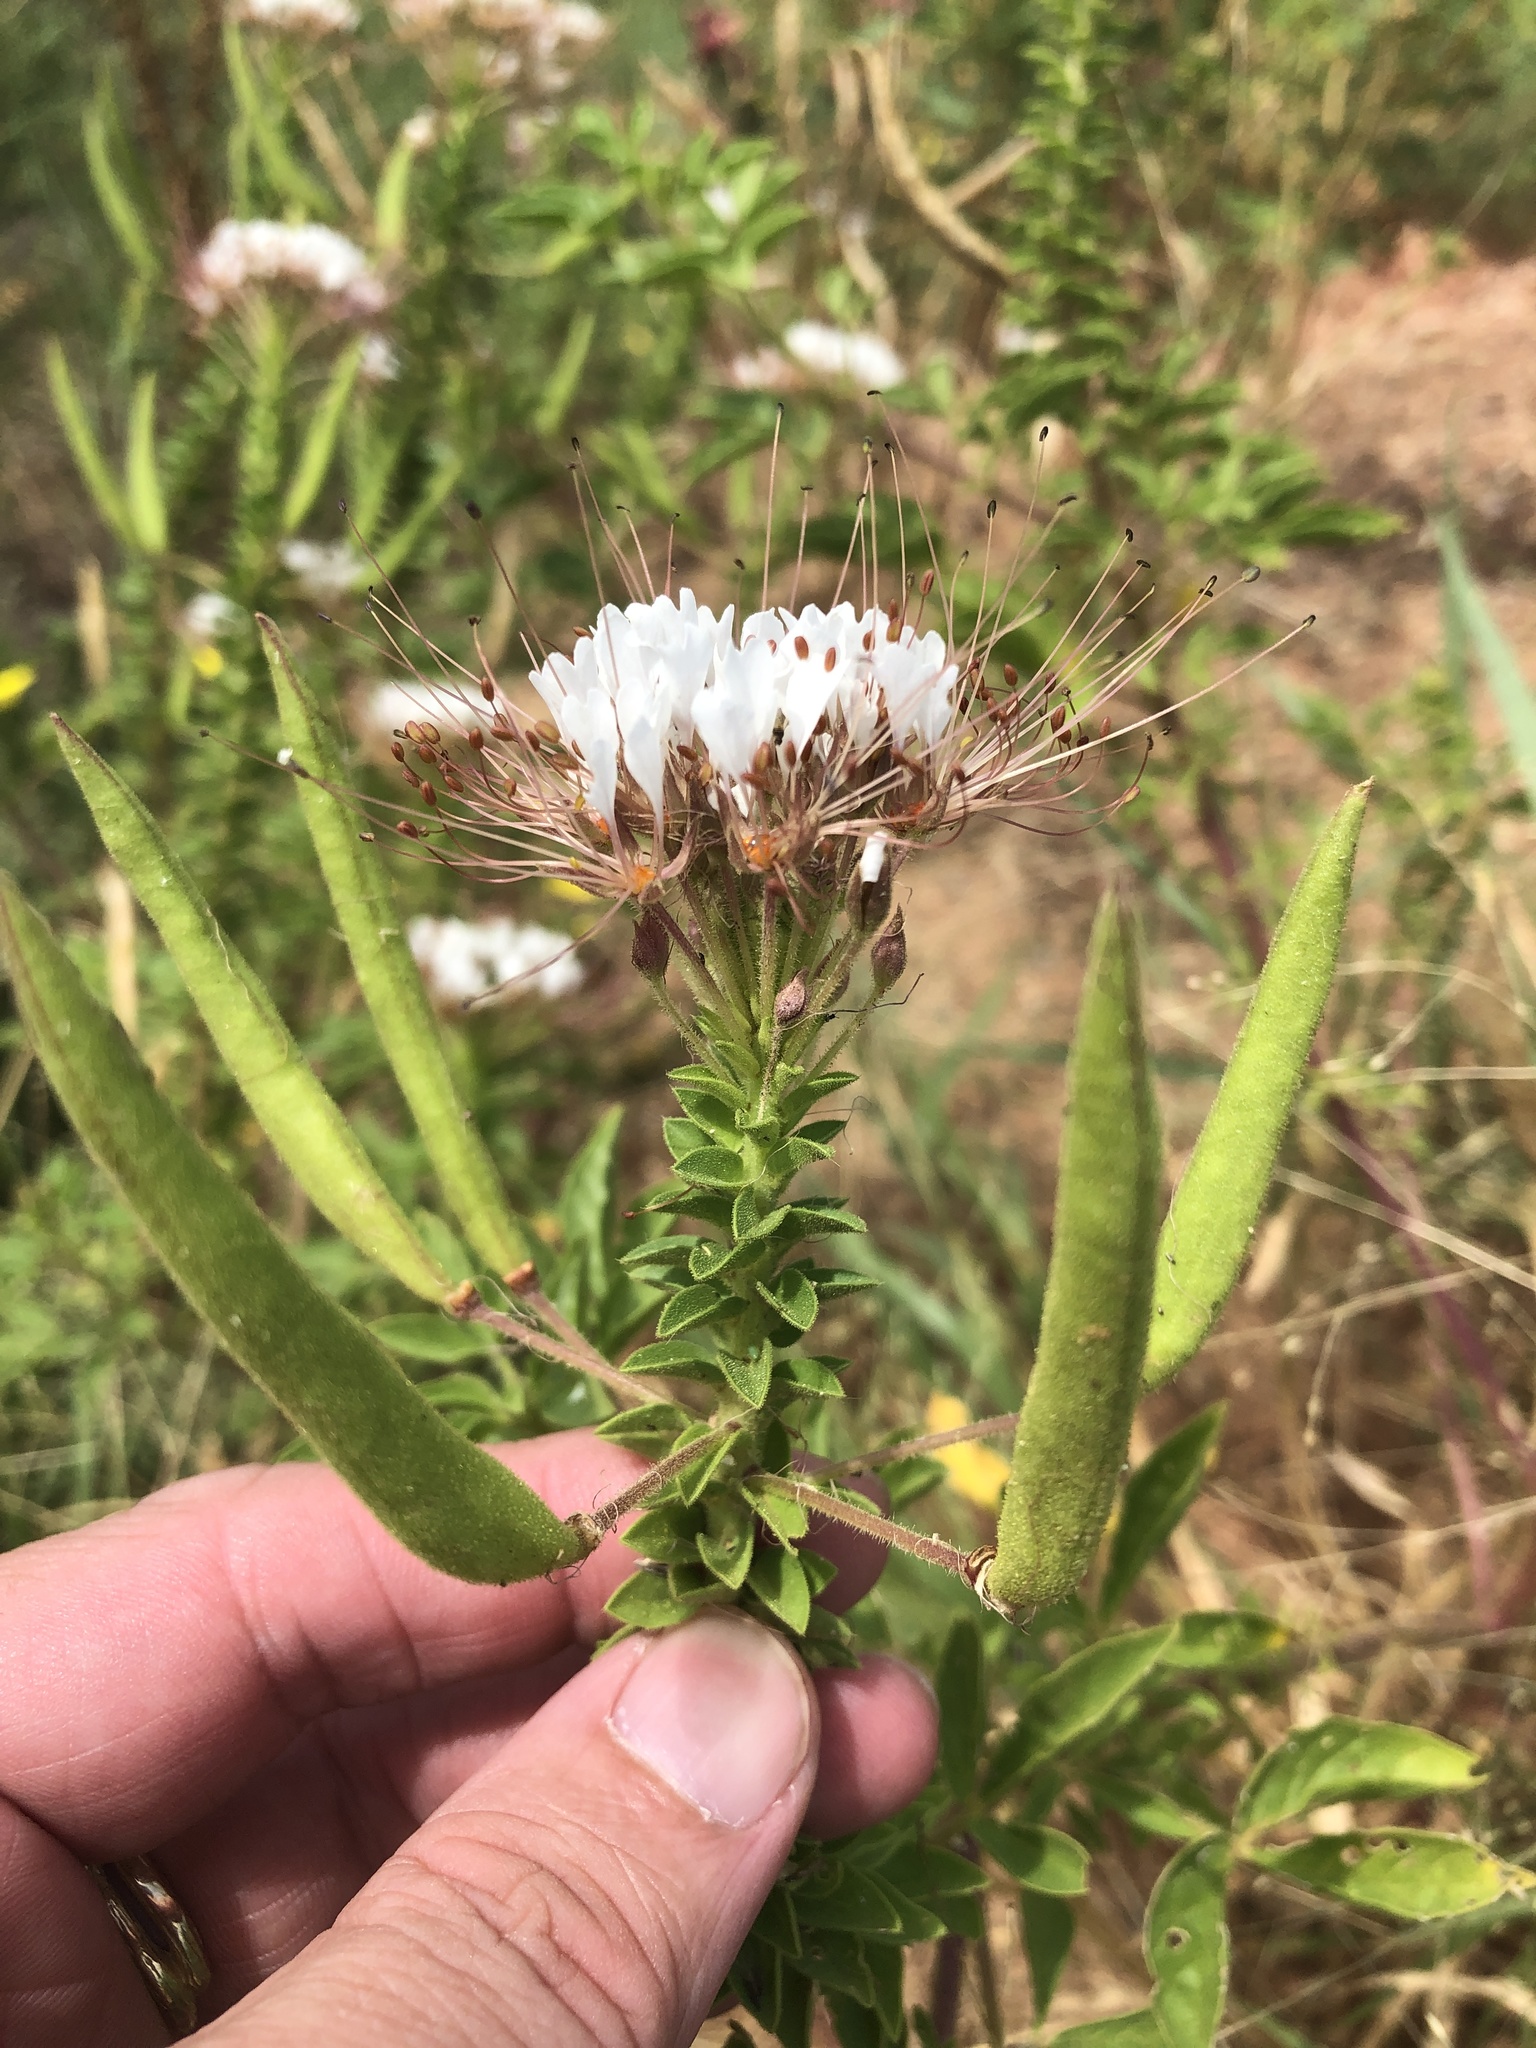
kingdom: Plantae
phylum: Tracheophyta
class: Magnoliopsida
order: Brassicales
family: Cleomaceae
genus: Polanisia
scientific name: Polanisia dodecandra
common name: Clammyweed
